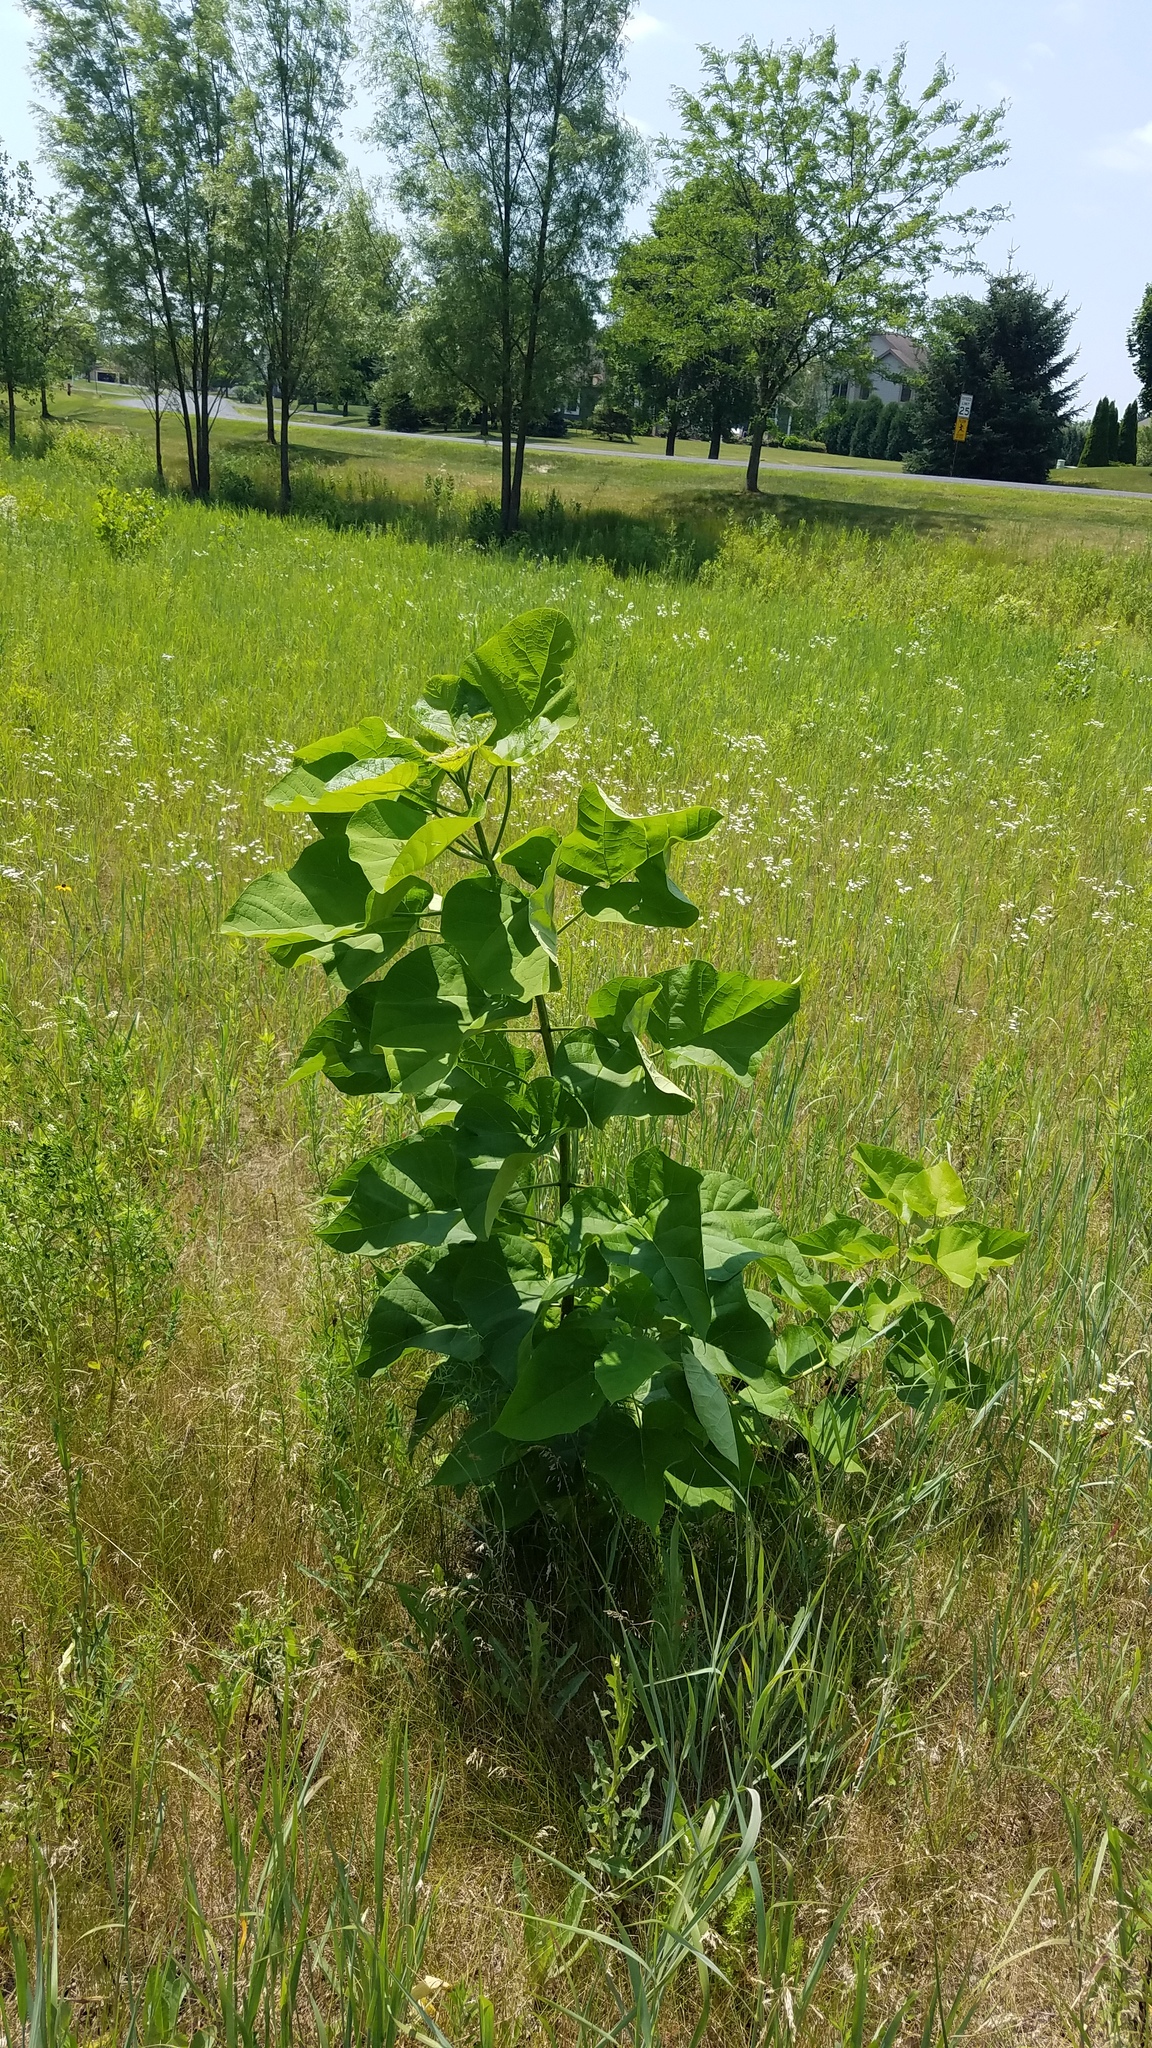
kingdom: Plantae
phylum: Tracheophyta
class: Magnoliopsida
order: Lamiales
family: Bignoniaceae
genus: Catalpa
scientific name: Catalpa speciosa
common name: Northern catalpa
